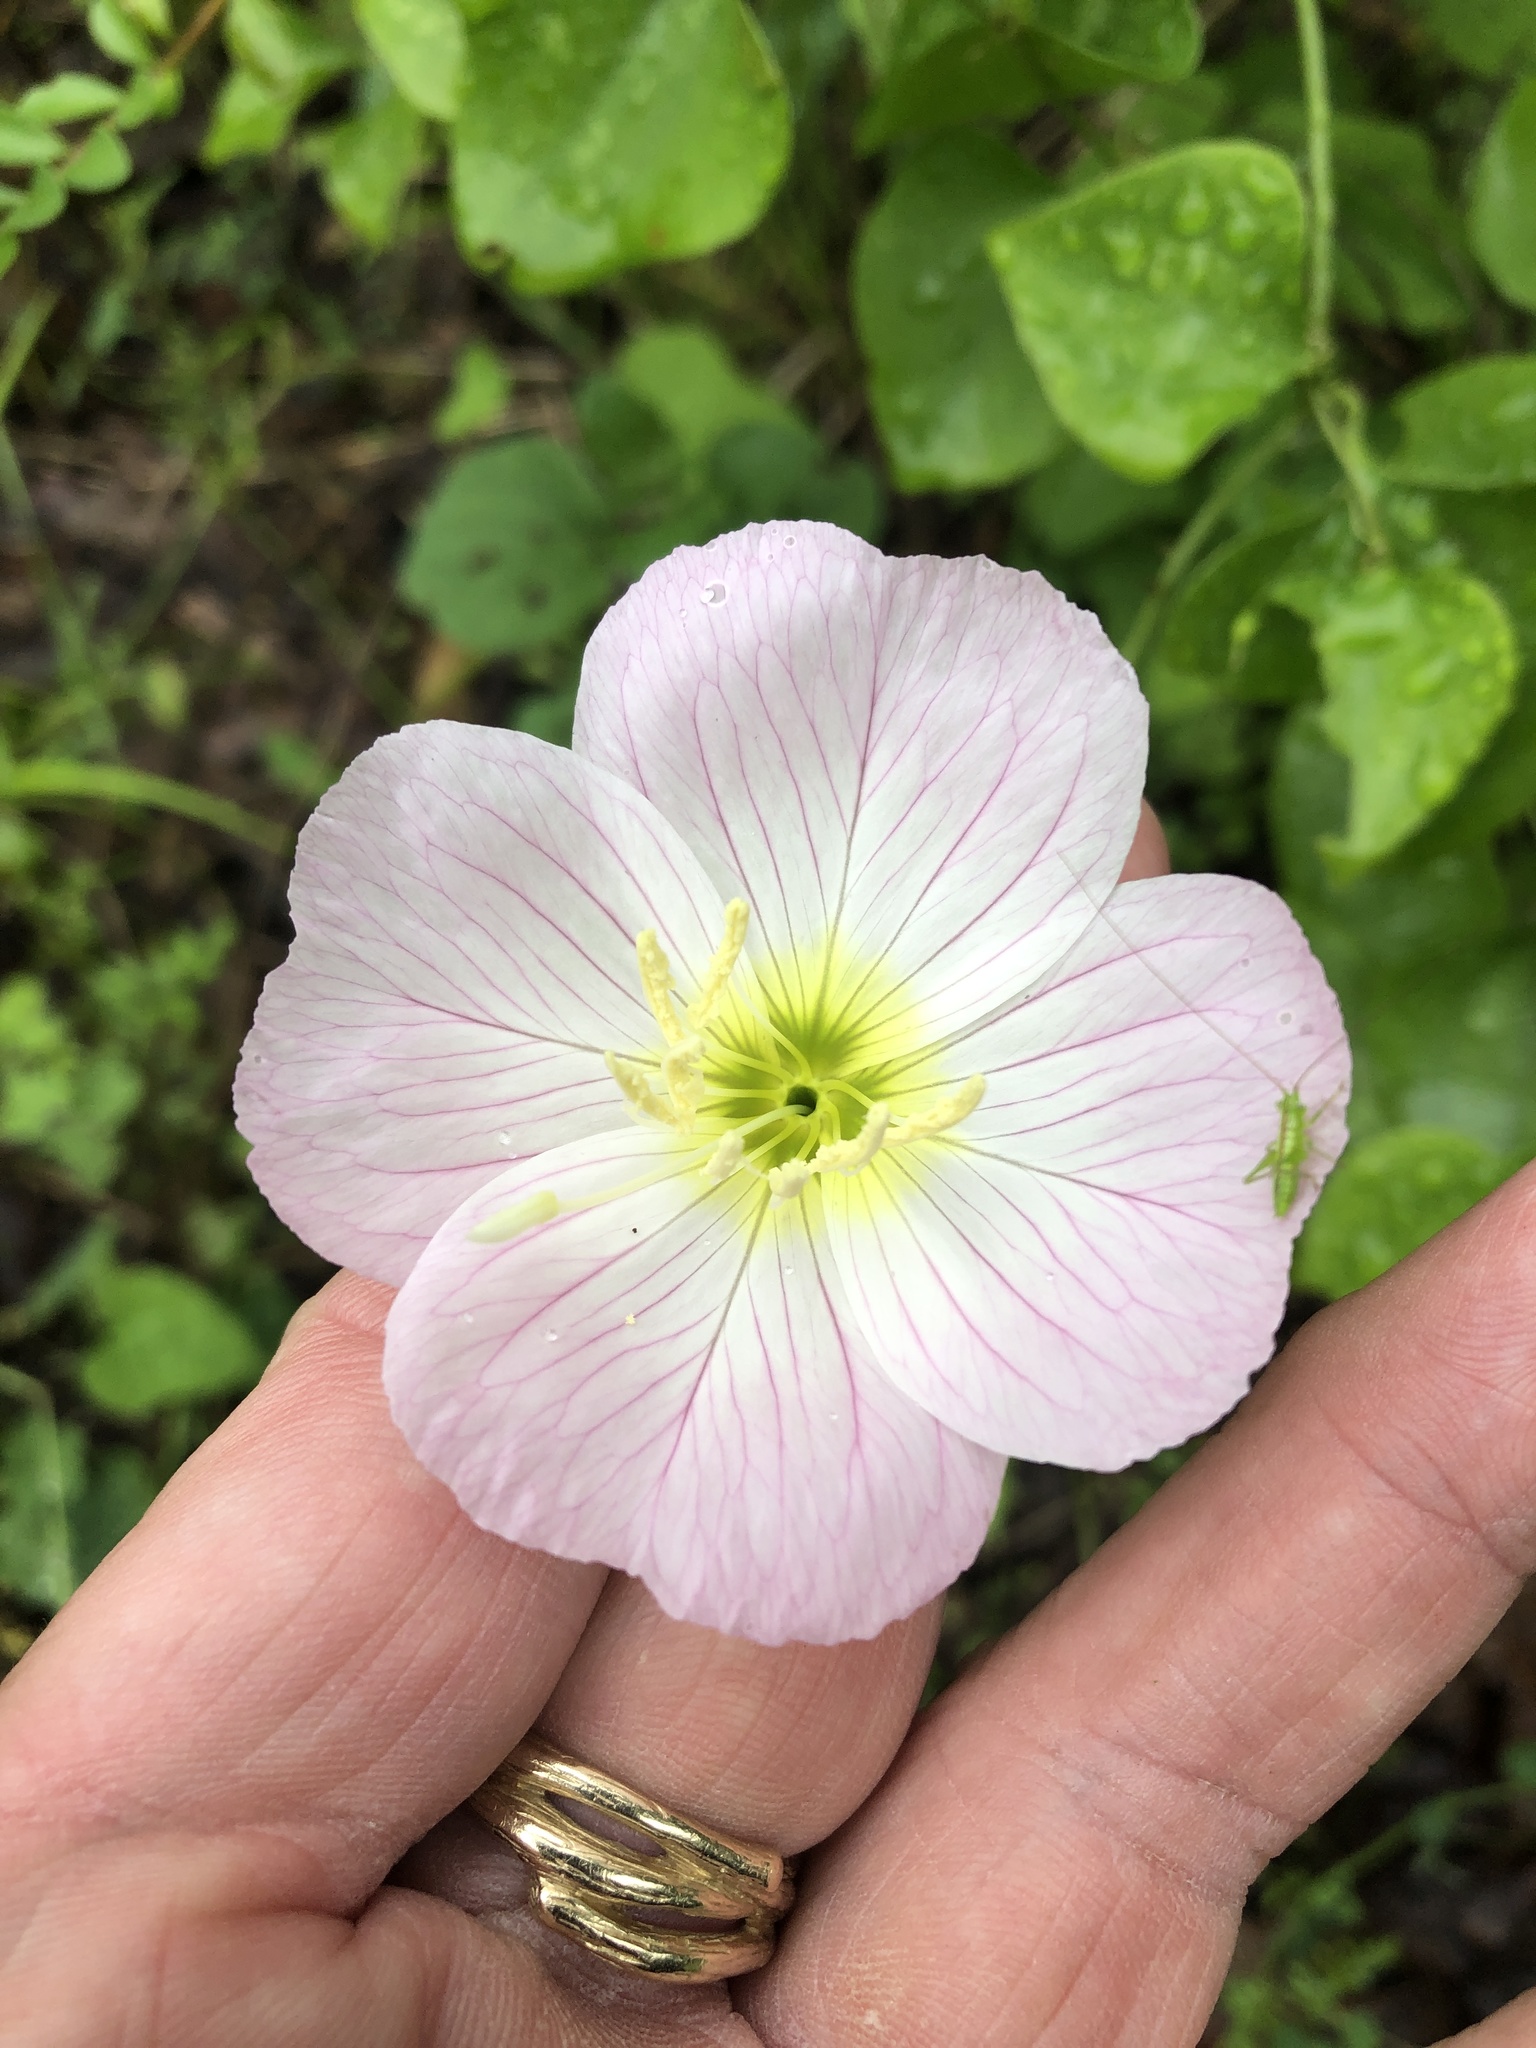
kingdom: Plantae
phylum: Tracheophyta
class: Magnoliopsida
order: Myrtales
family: Onagraceae
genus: Oenothera
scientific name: Oenothera speciosa
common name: White evening-primrose
